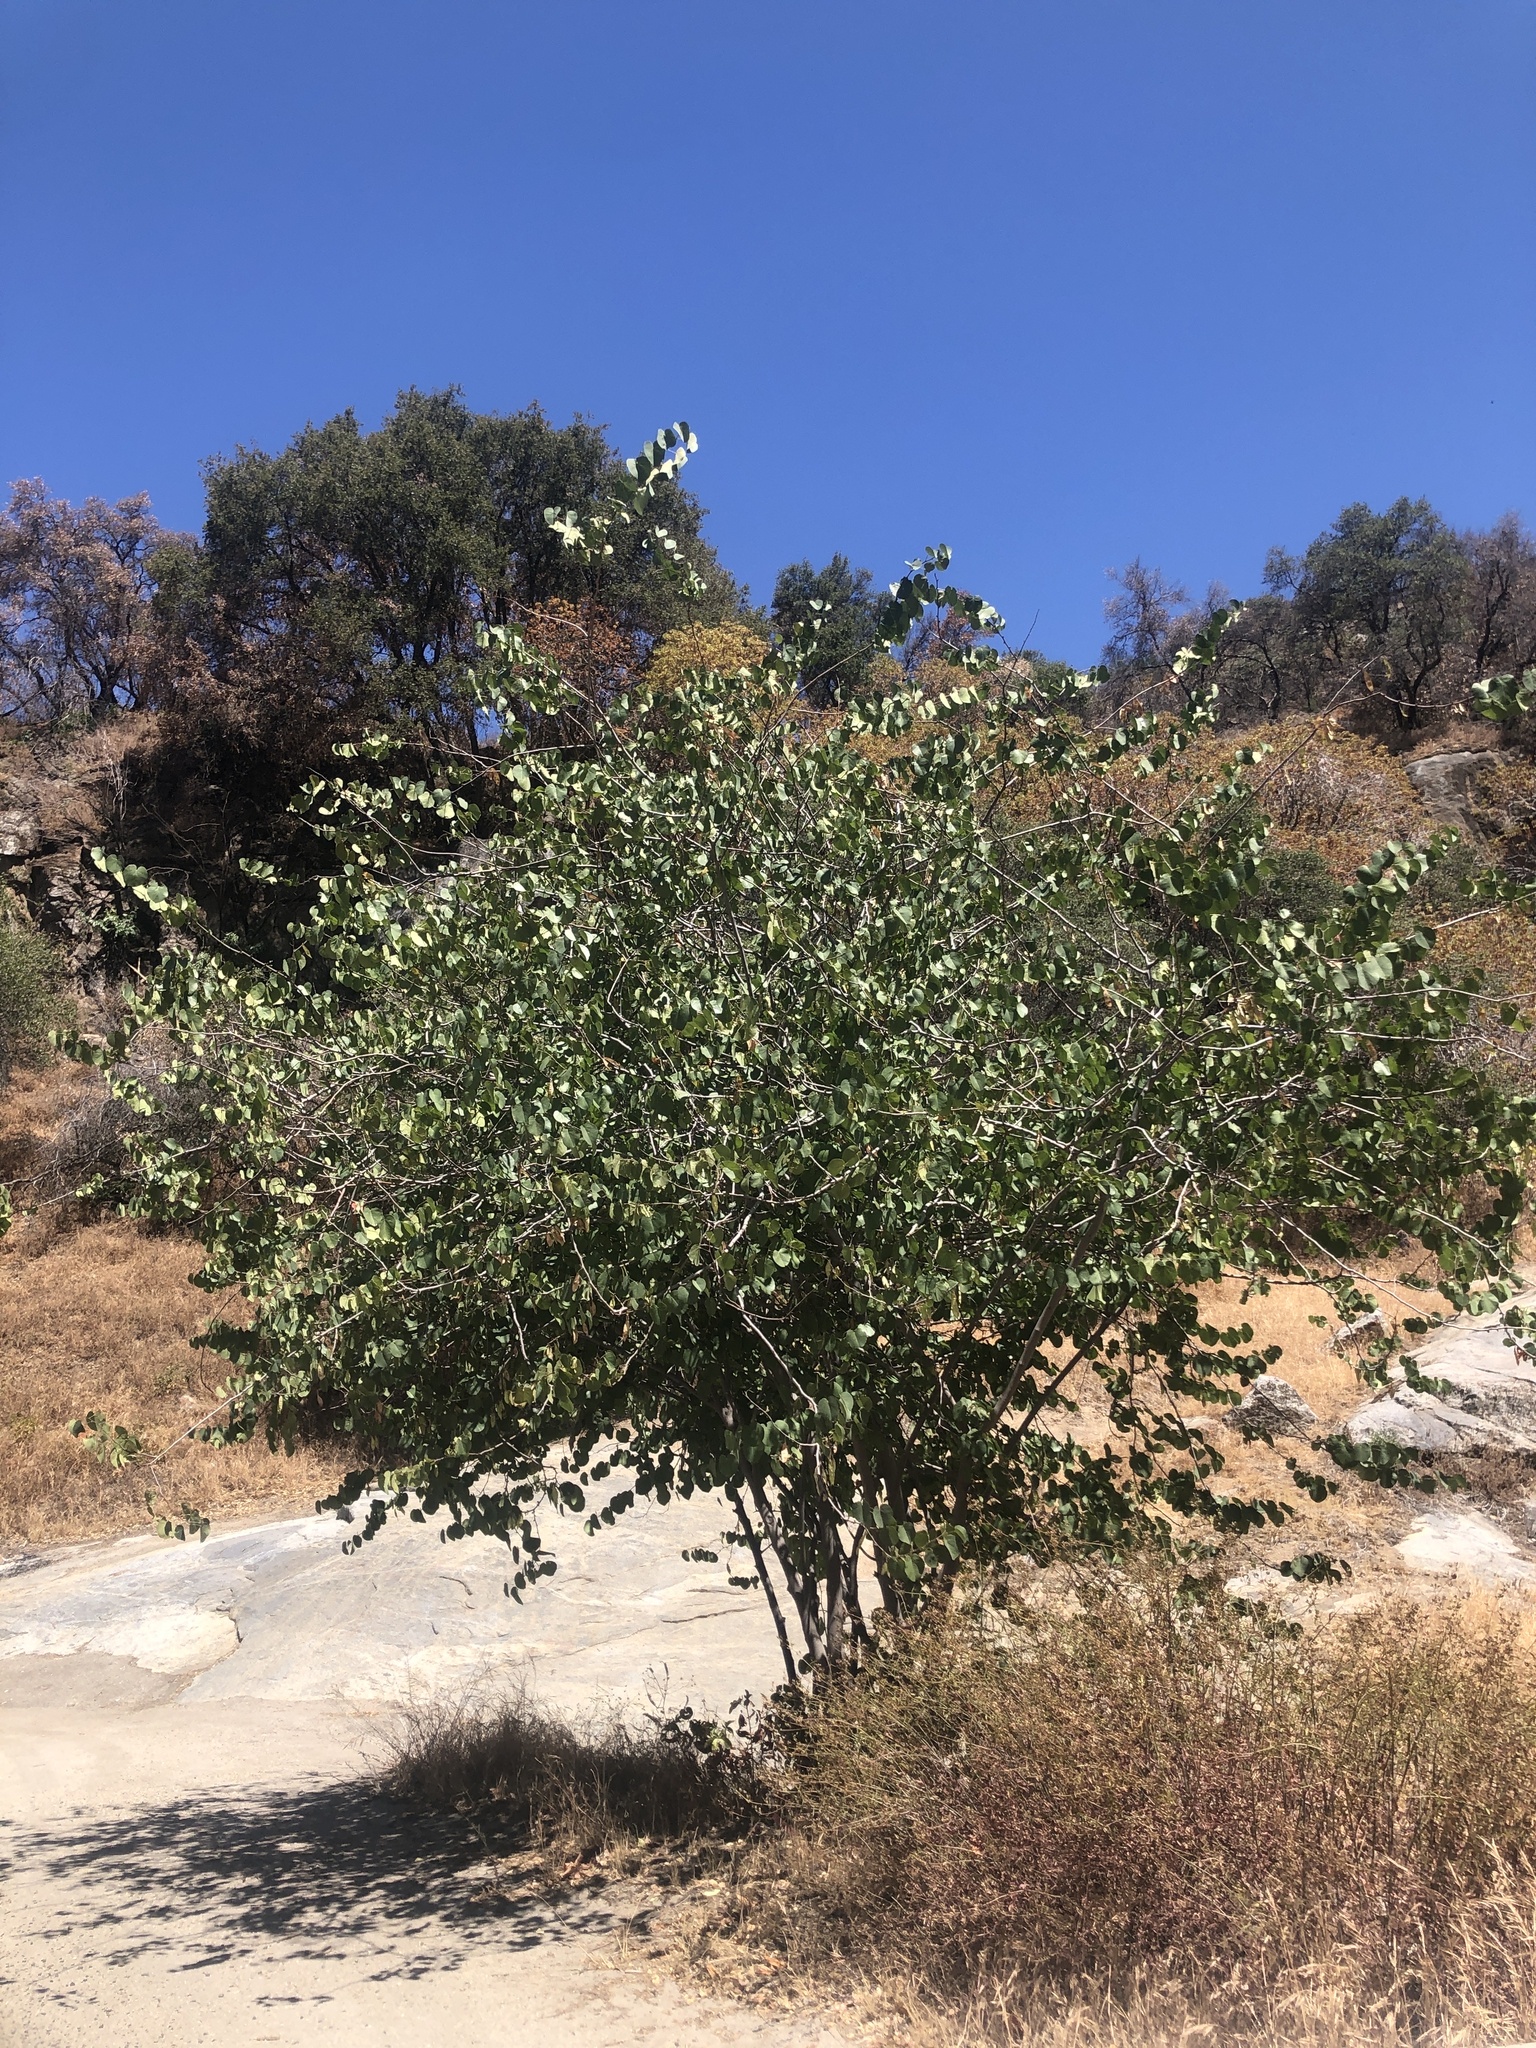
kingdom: Plantae
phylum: Tracheophyta
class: Magnoliopsida
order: Fabales
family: Fabaceae
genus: Cercis
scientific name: Cercis occidentalis
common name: California redbud
